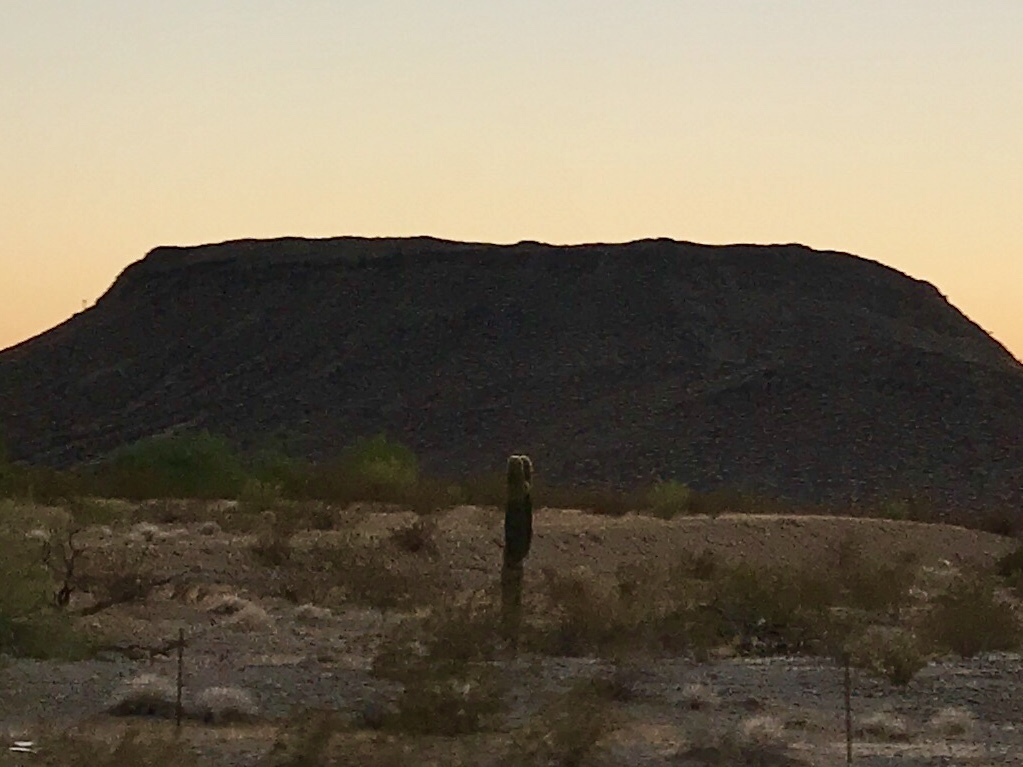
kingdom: Plantae
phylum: Tracheophyta
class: Magnoliopsida
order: Caryophyllales
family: Cactaceae
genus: Carnegiea
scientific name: Carnegiea gigantea
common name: Saguaro
